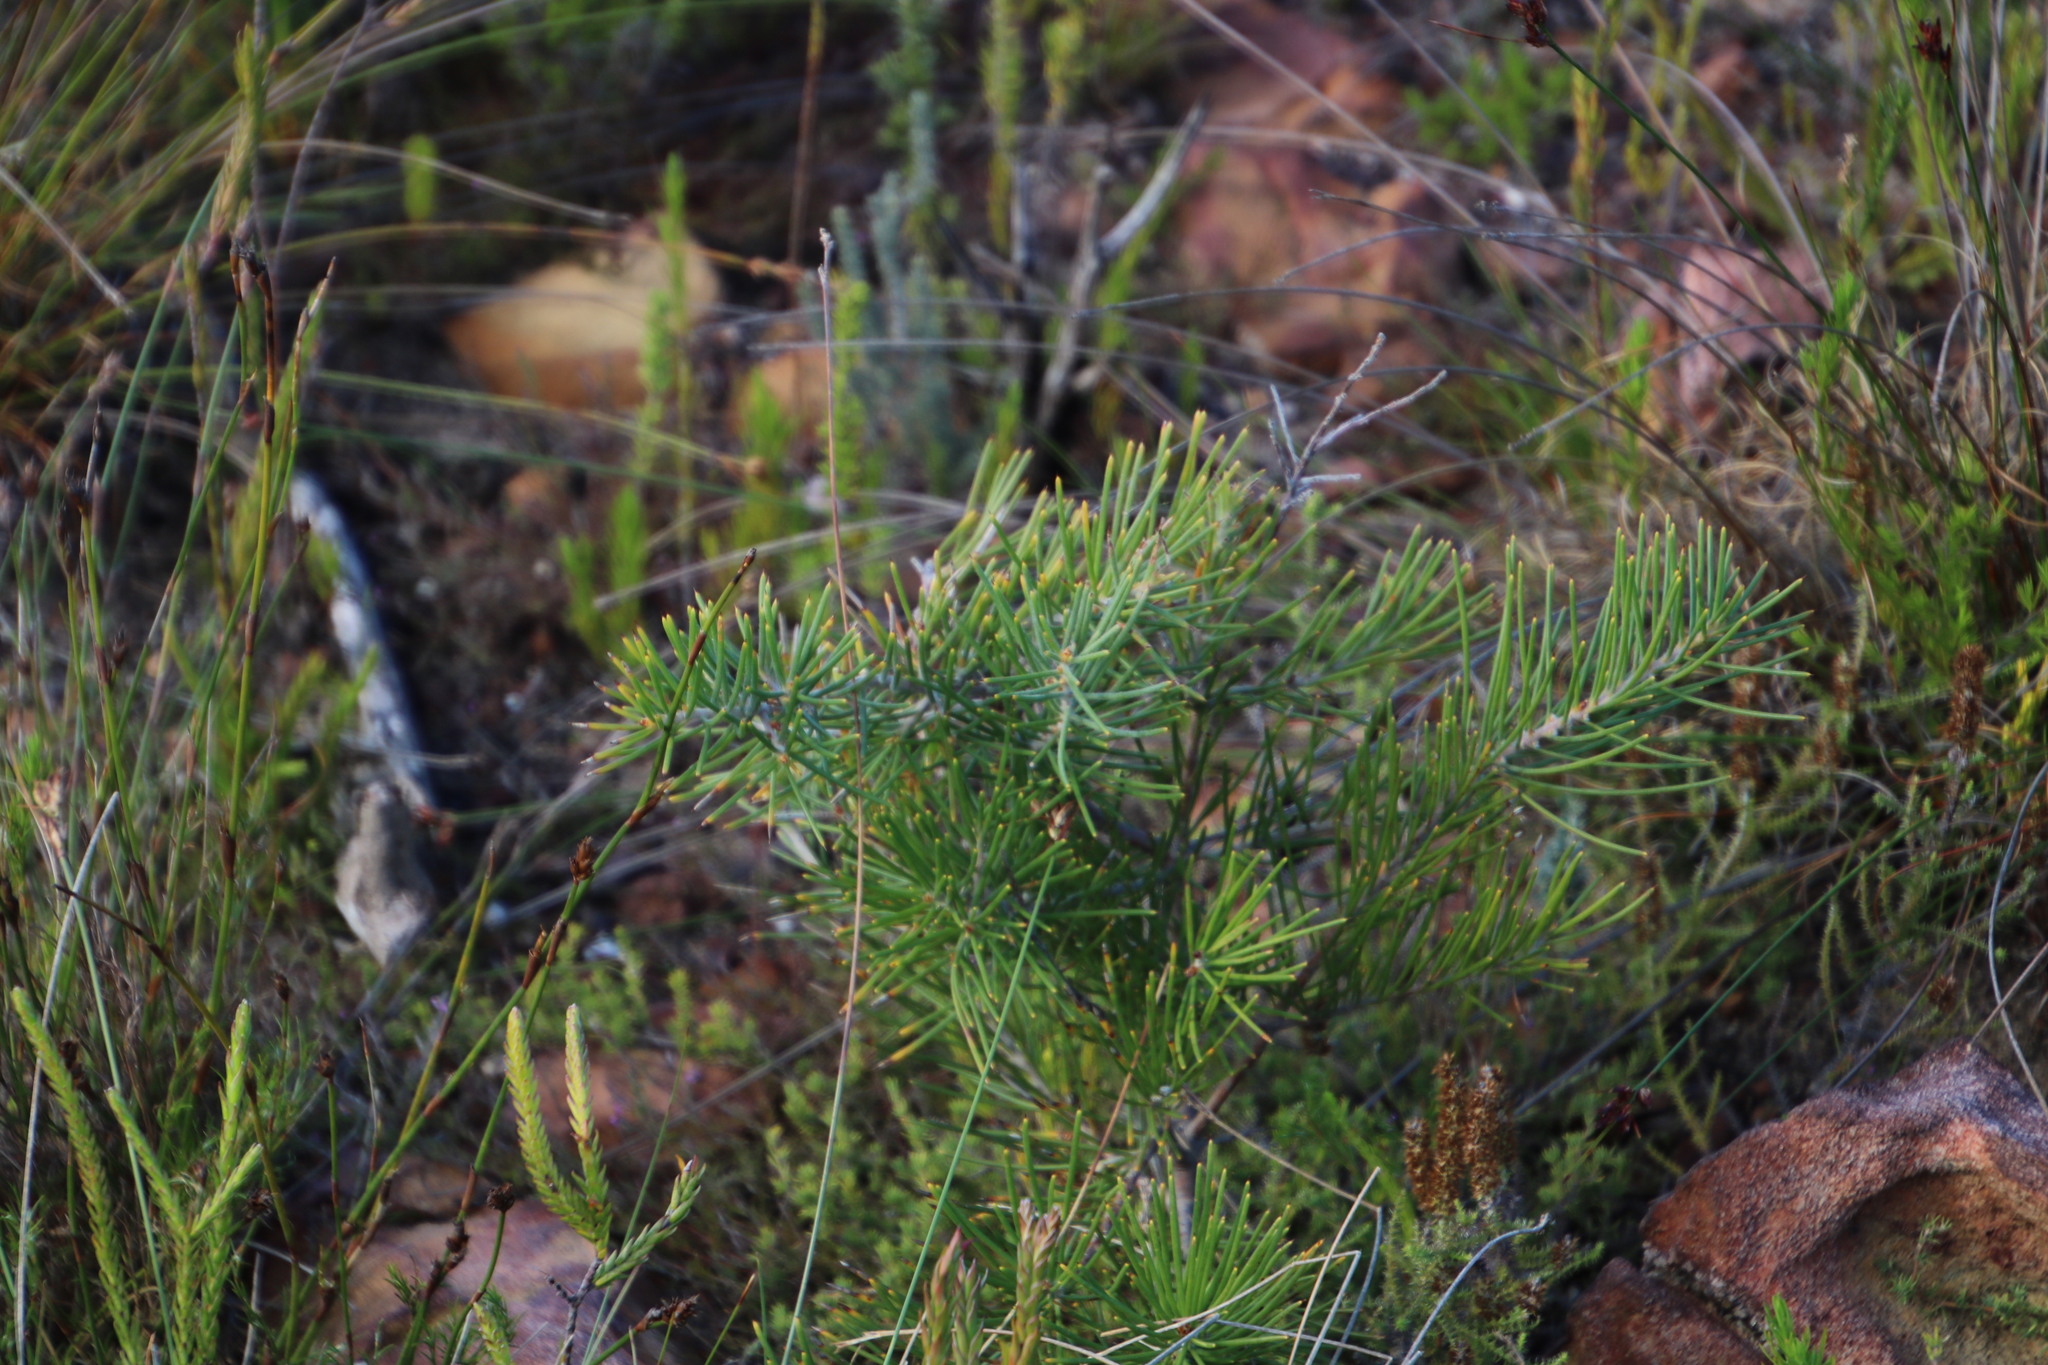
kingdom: Plantae
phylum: Tracheophyta
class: Magnoliopsida
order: Proteales
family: Proteaceae
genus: Hakea
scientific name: Hakea gibbosa
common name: Rock hakea
